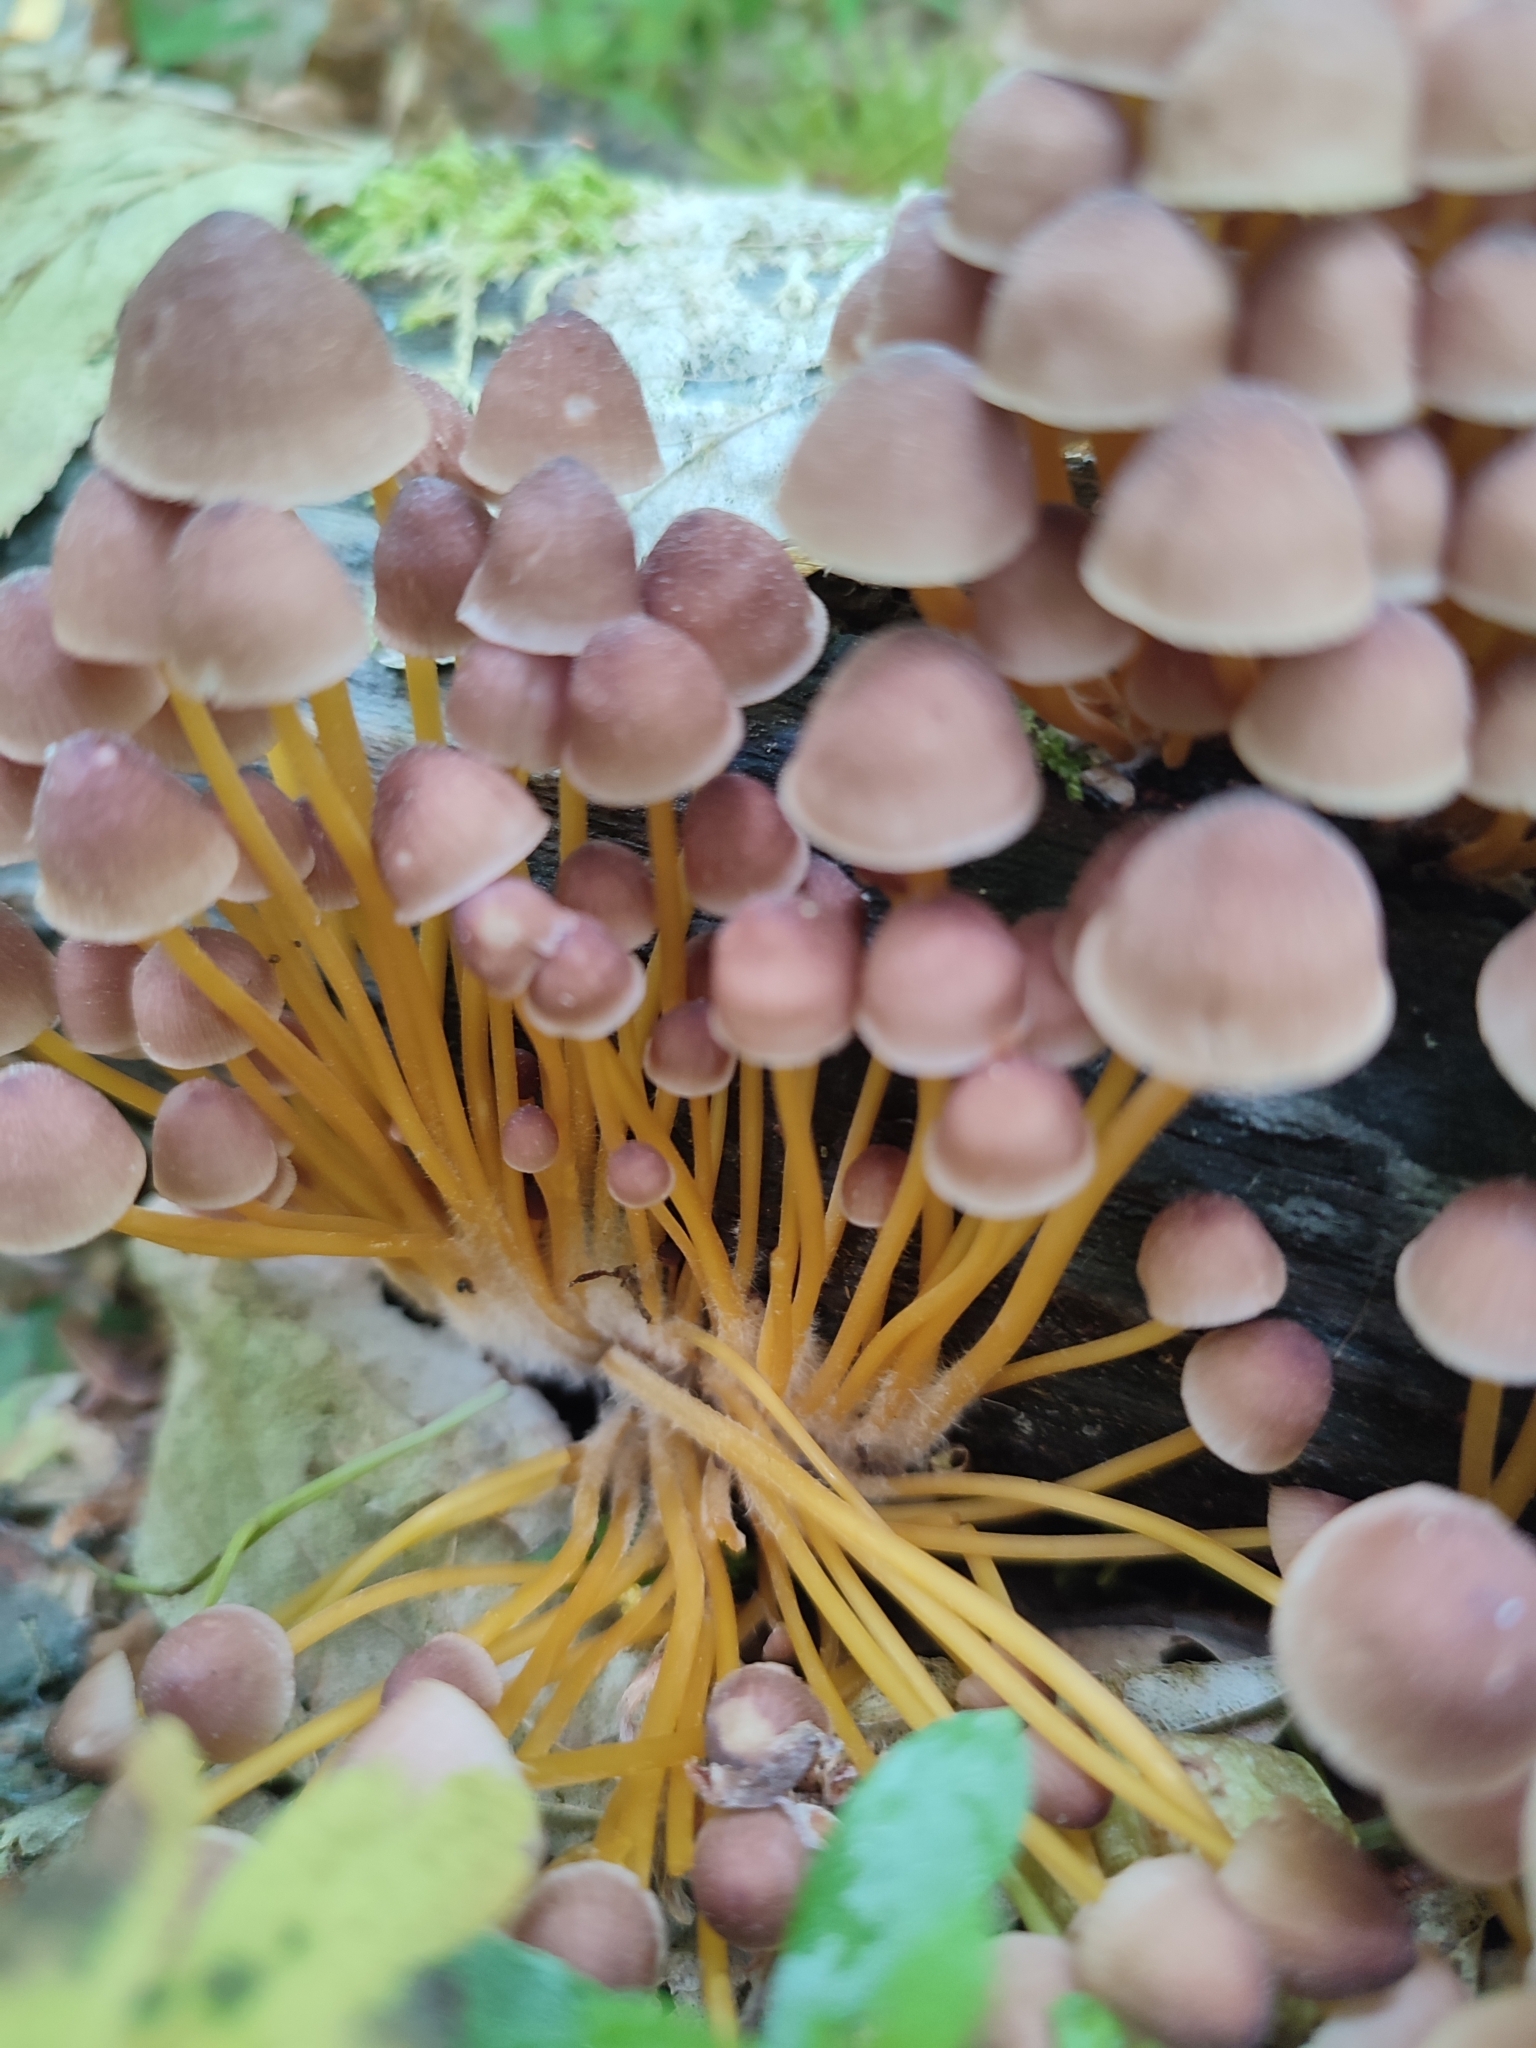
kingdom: Fungi
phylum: Basidiomycota
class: Agaricomycetes
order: Agaricales
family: Mycenaceae
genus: Mycena
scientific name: Mycena renati
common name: Beautiful bonnet
